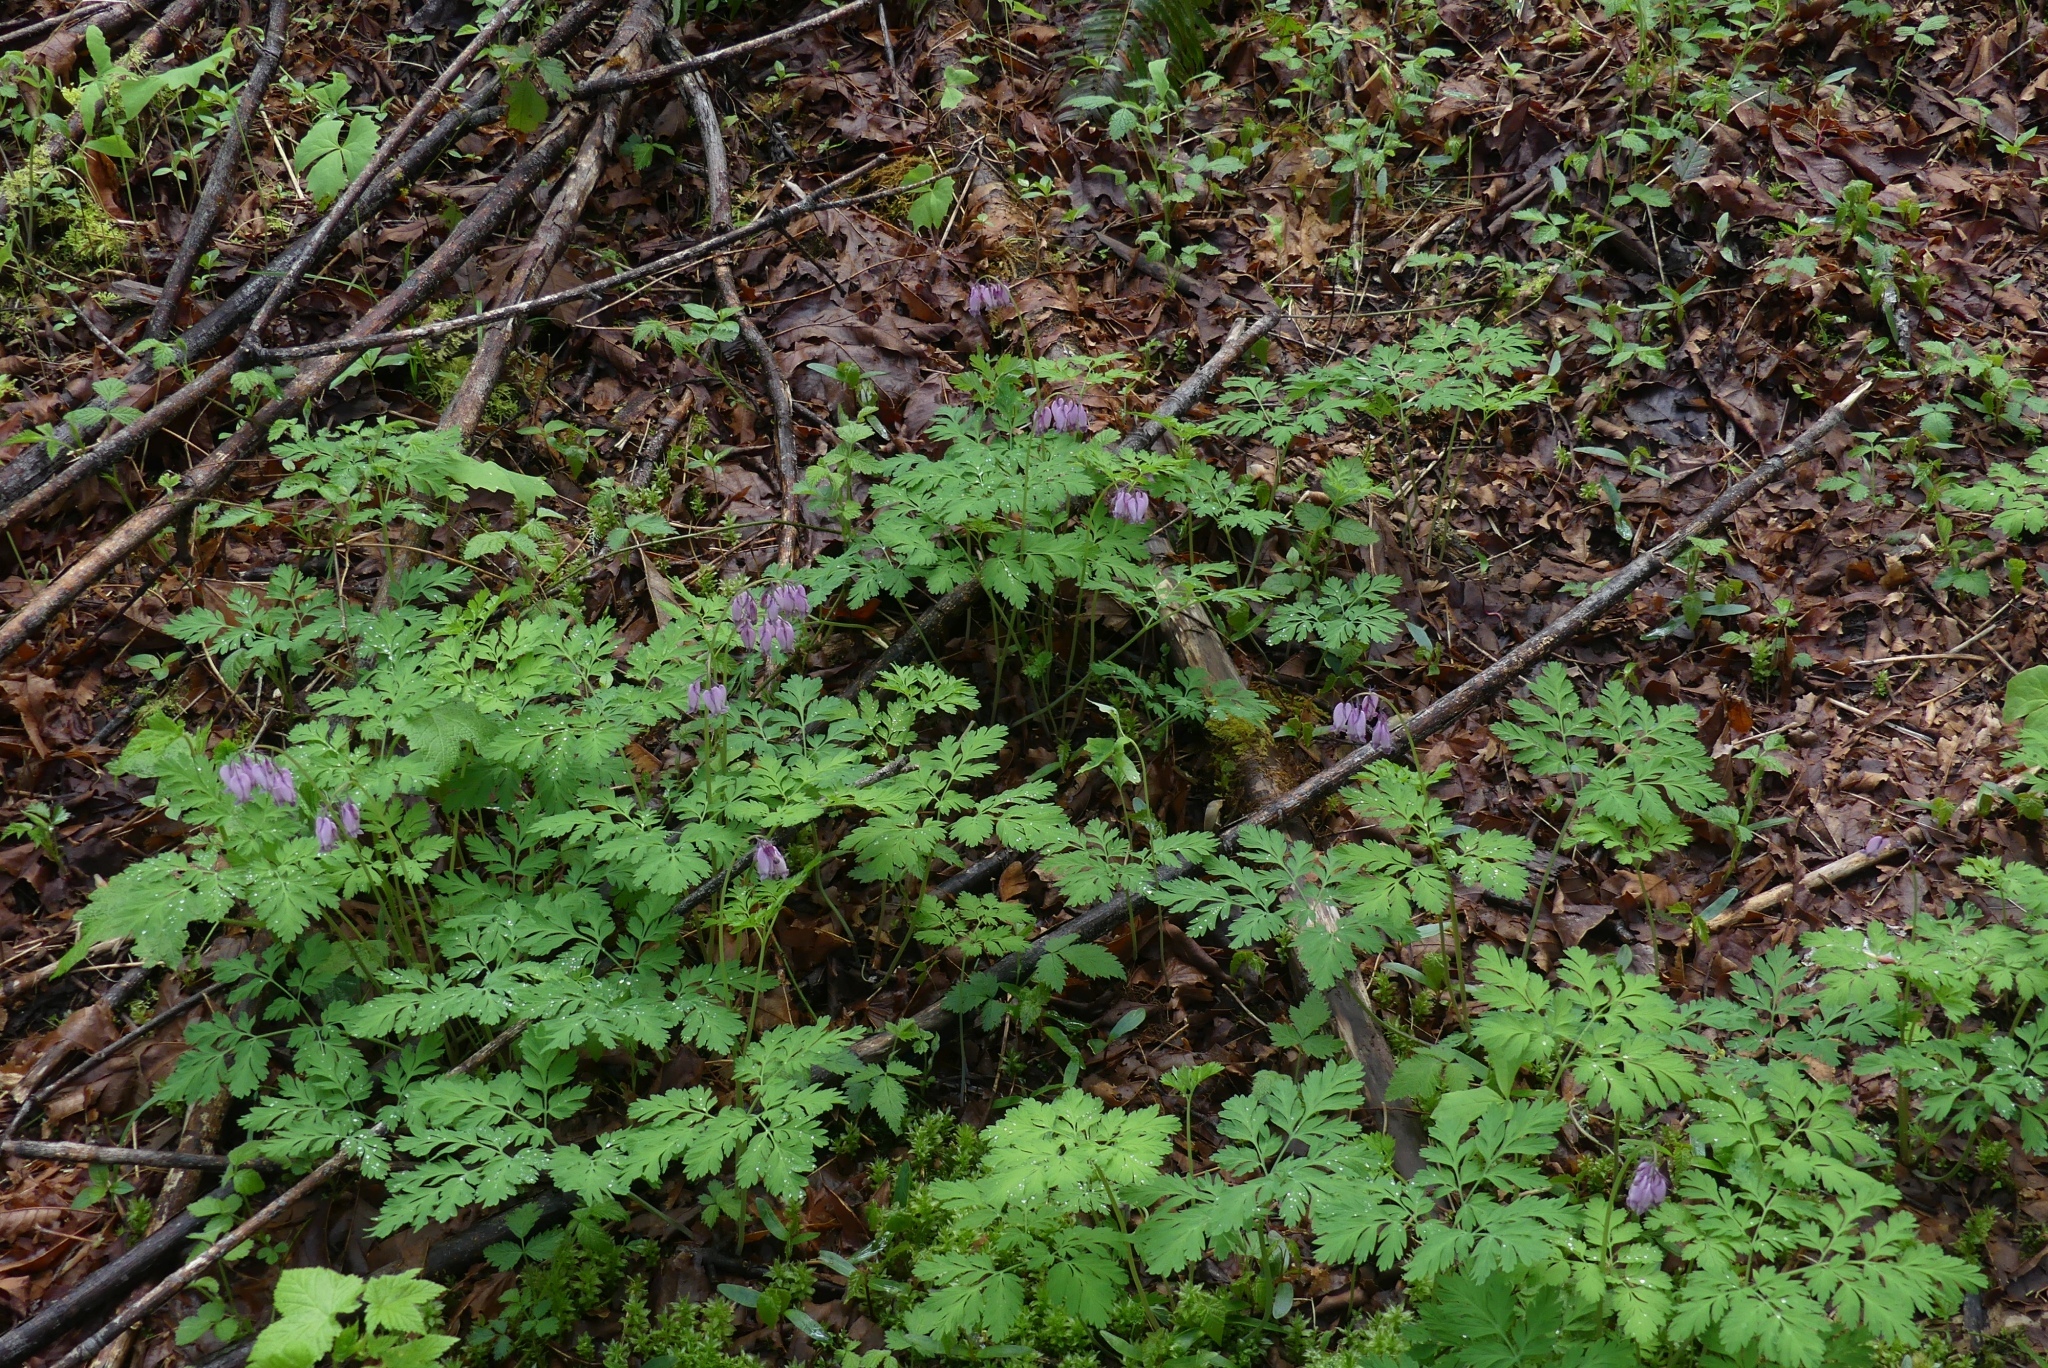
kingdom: Plantae
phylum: Tracheophyta
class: Magnoliopsida
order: Ranunculales
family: Papaveraceae
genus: Dicentra
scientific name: Dicentra formosa
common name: Bleeding-heart
